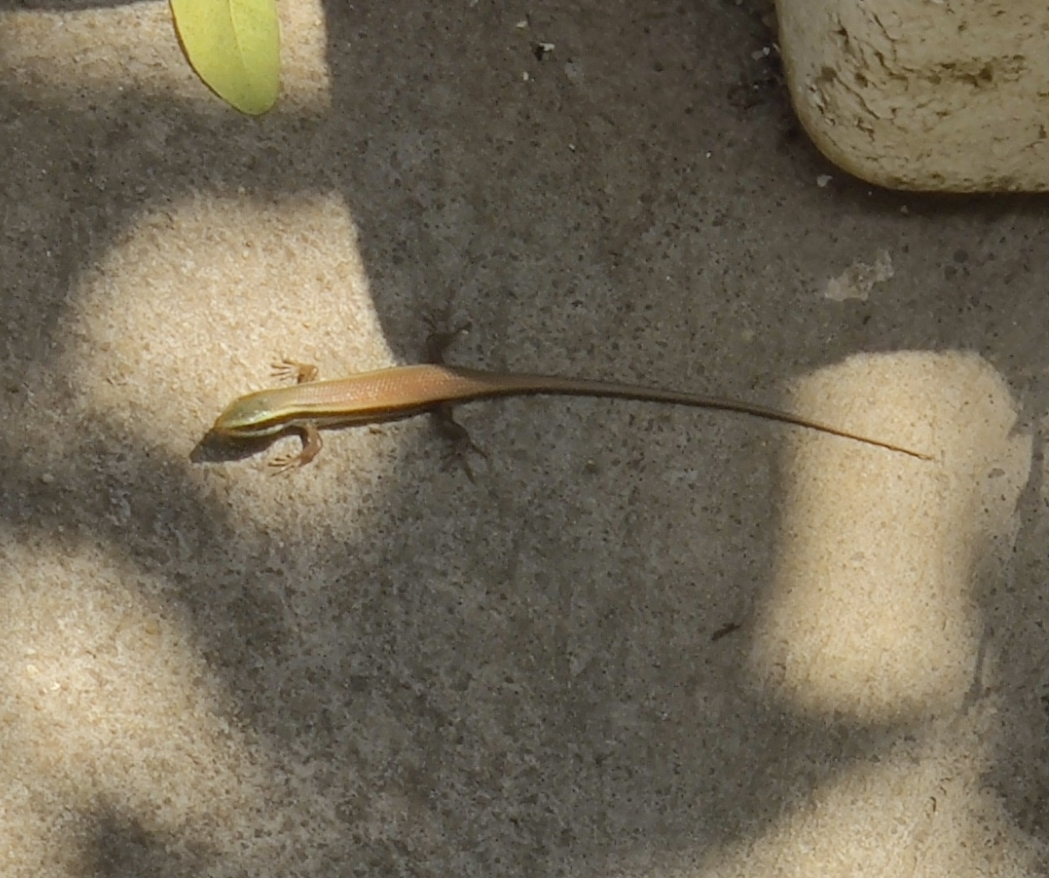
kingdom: Animalia
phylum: Chordata
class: Squamata
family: Scincidae
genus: Eutropis
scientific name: Eutropis carinata
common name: Keeled indian mabuya
